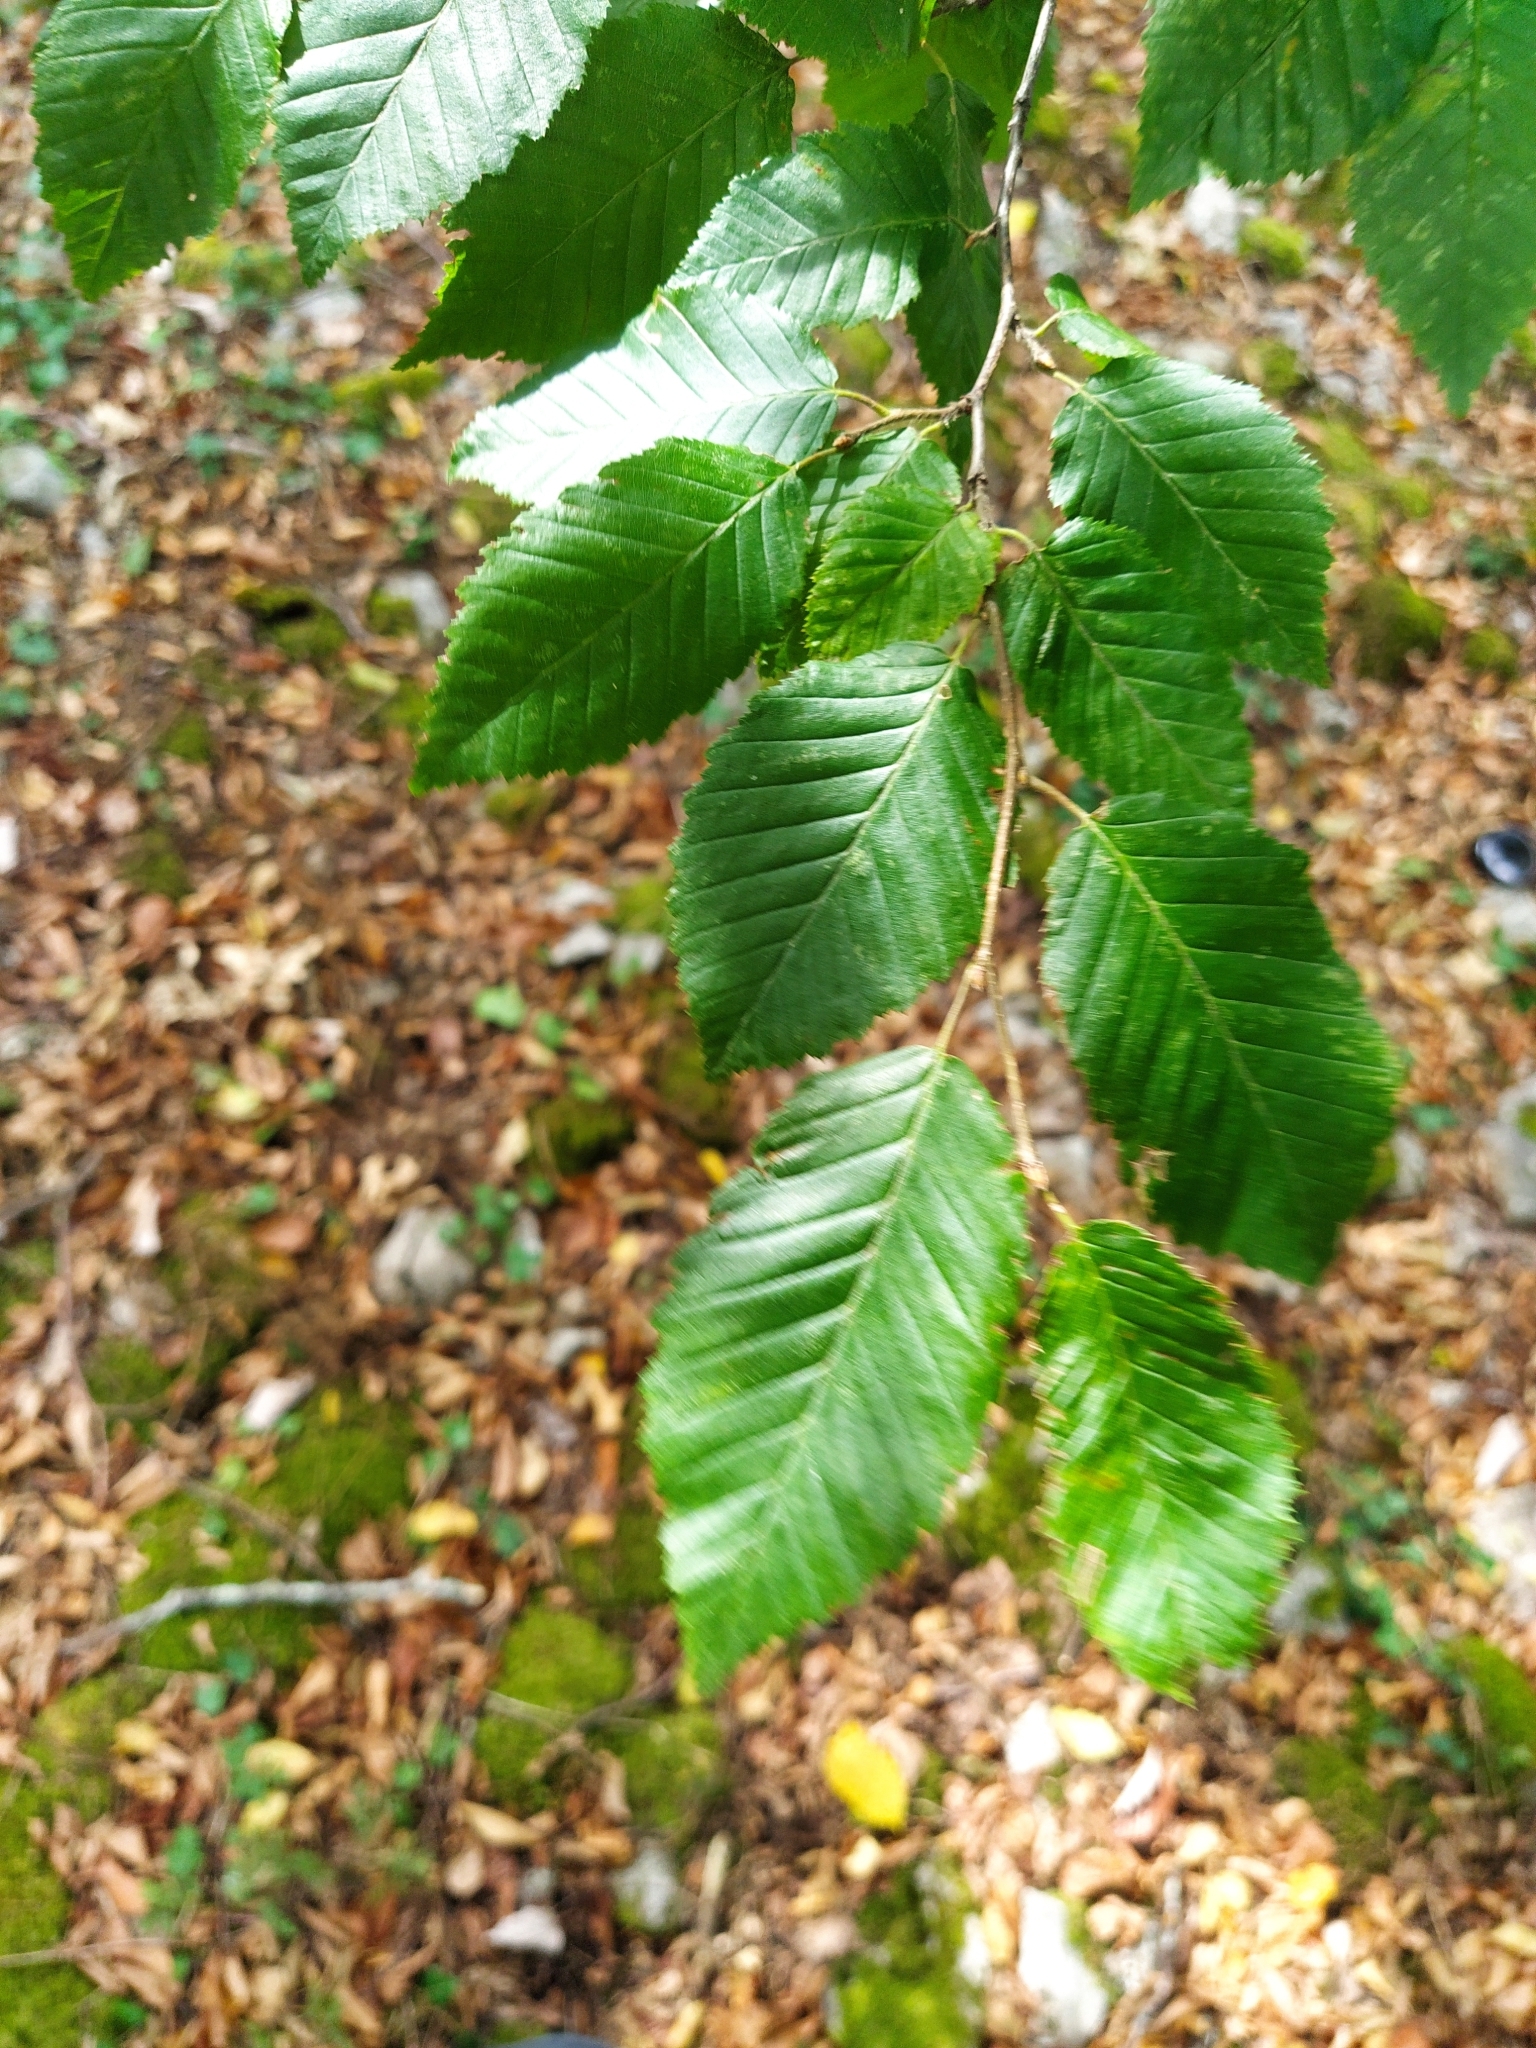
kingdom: Plantae
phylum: Tracheophyta
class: Magnoliopsida
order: Fagales
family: Betulaceae
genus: Carpinus
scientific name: Carpinus betulus
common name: Hornbeam
